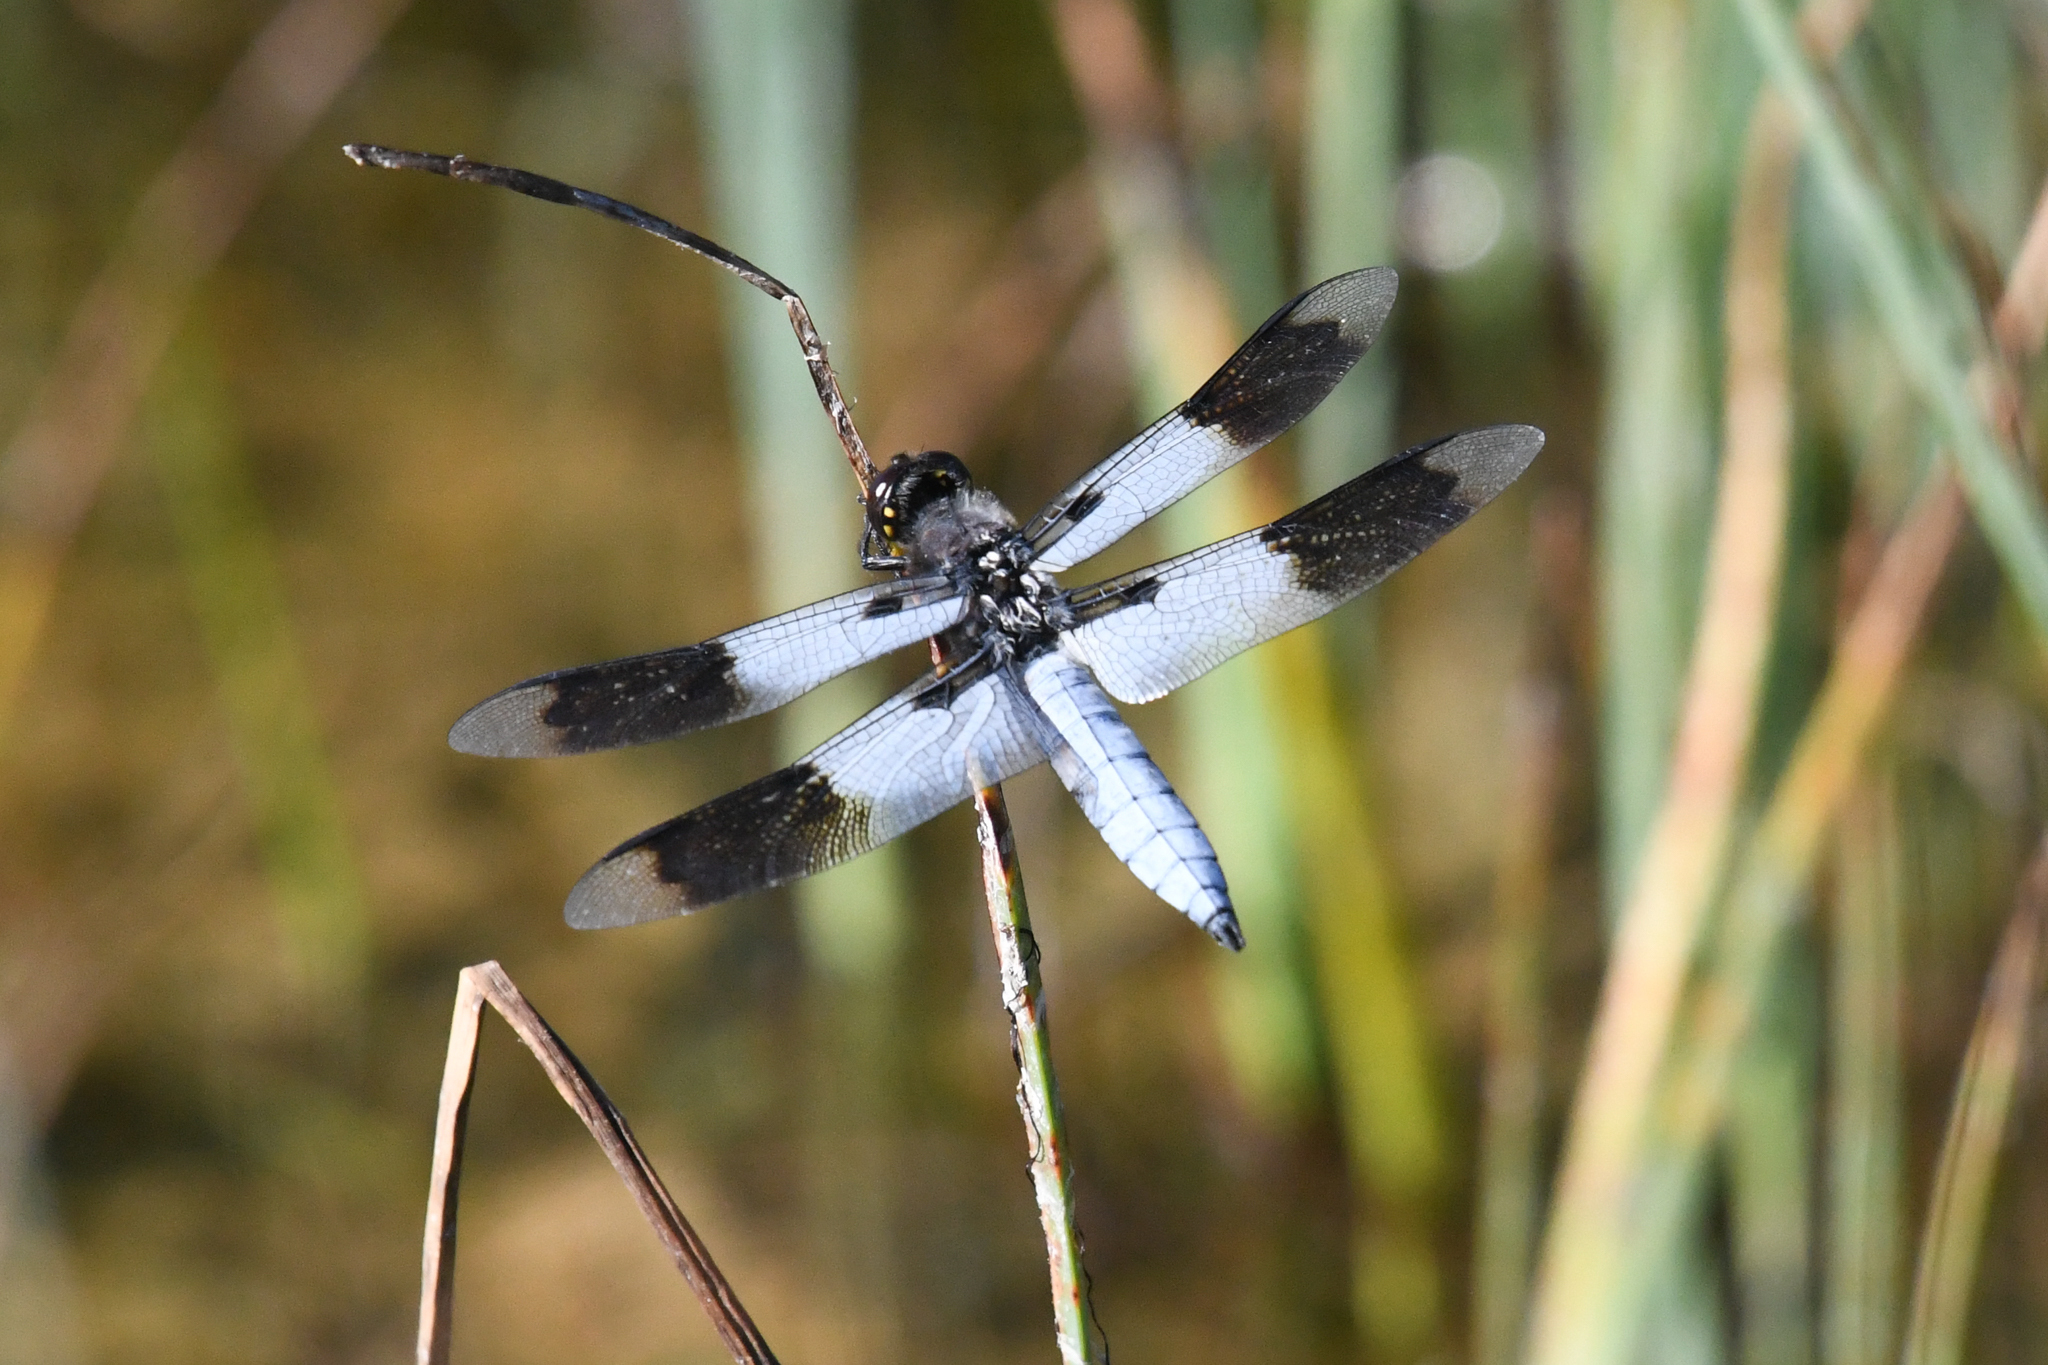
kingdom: Animalia
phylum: Arthropoda
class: Insecta
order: Odonata
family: Libellulidae
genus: Plathemis
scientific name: Plathemis subornata
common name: Desert whitetail
